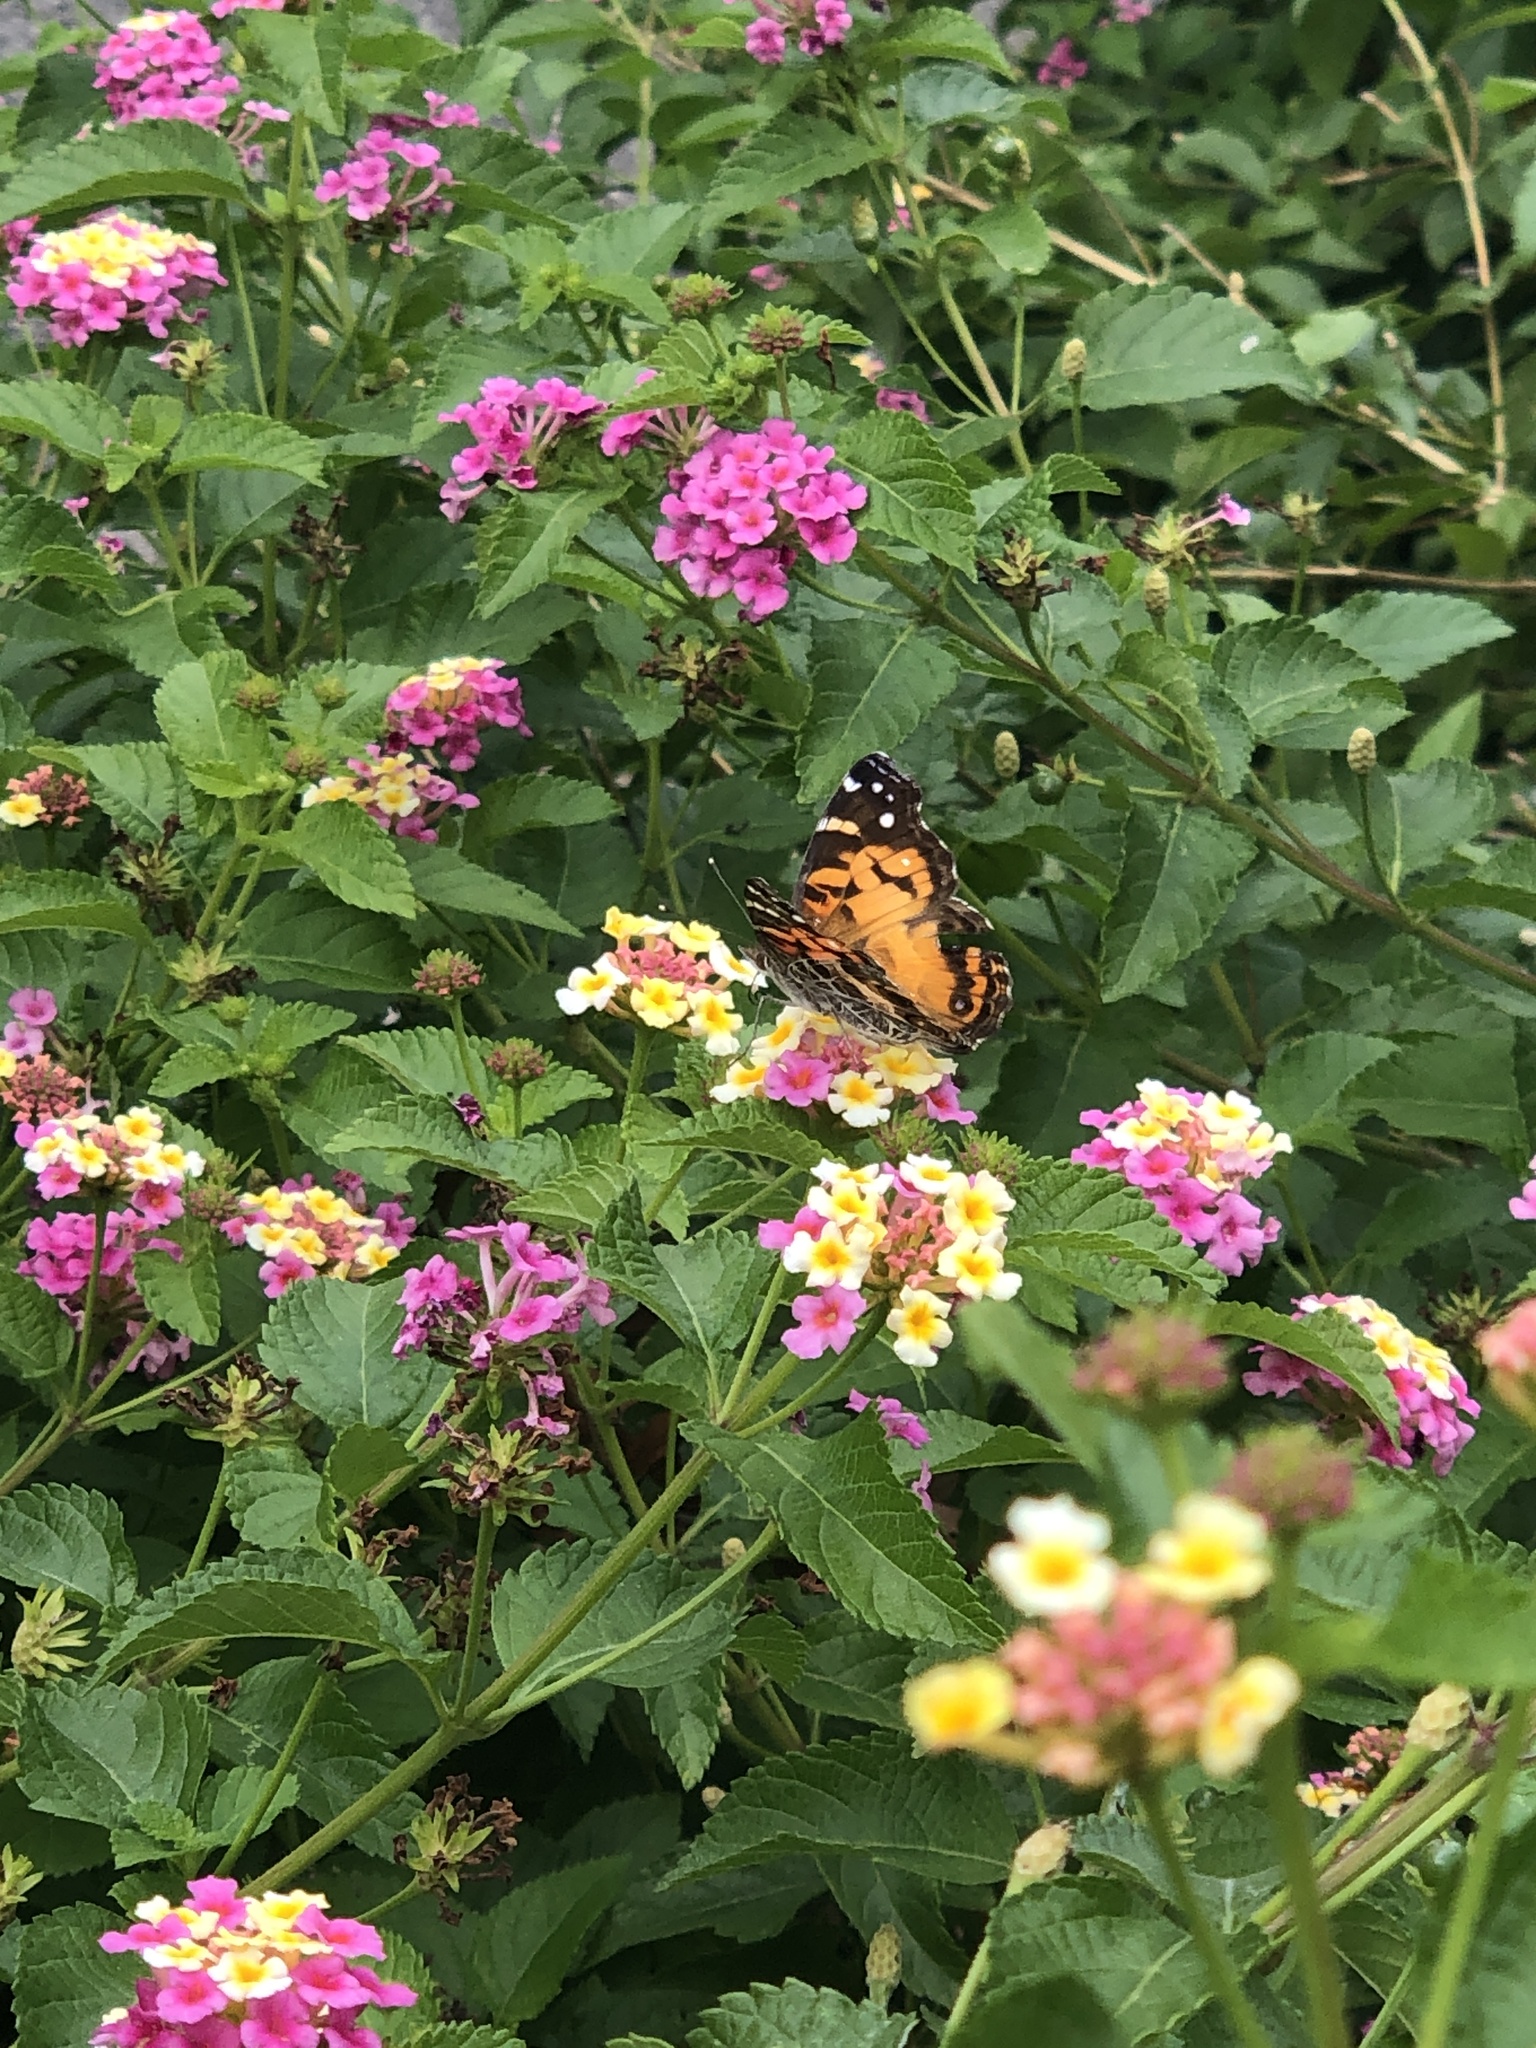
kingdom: Animalia
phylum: Arthropoda
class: Insecta
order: Lepidoptera
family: Nymphalidae
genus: Vanessa
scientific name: Vanessa virginiensis
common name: American lady
